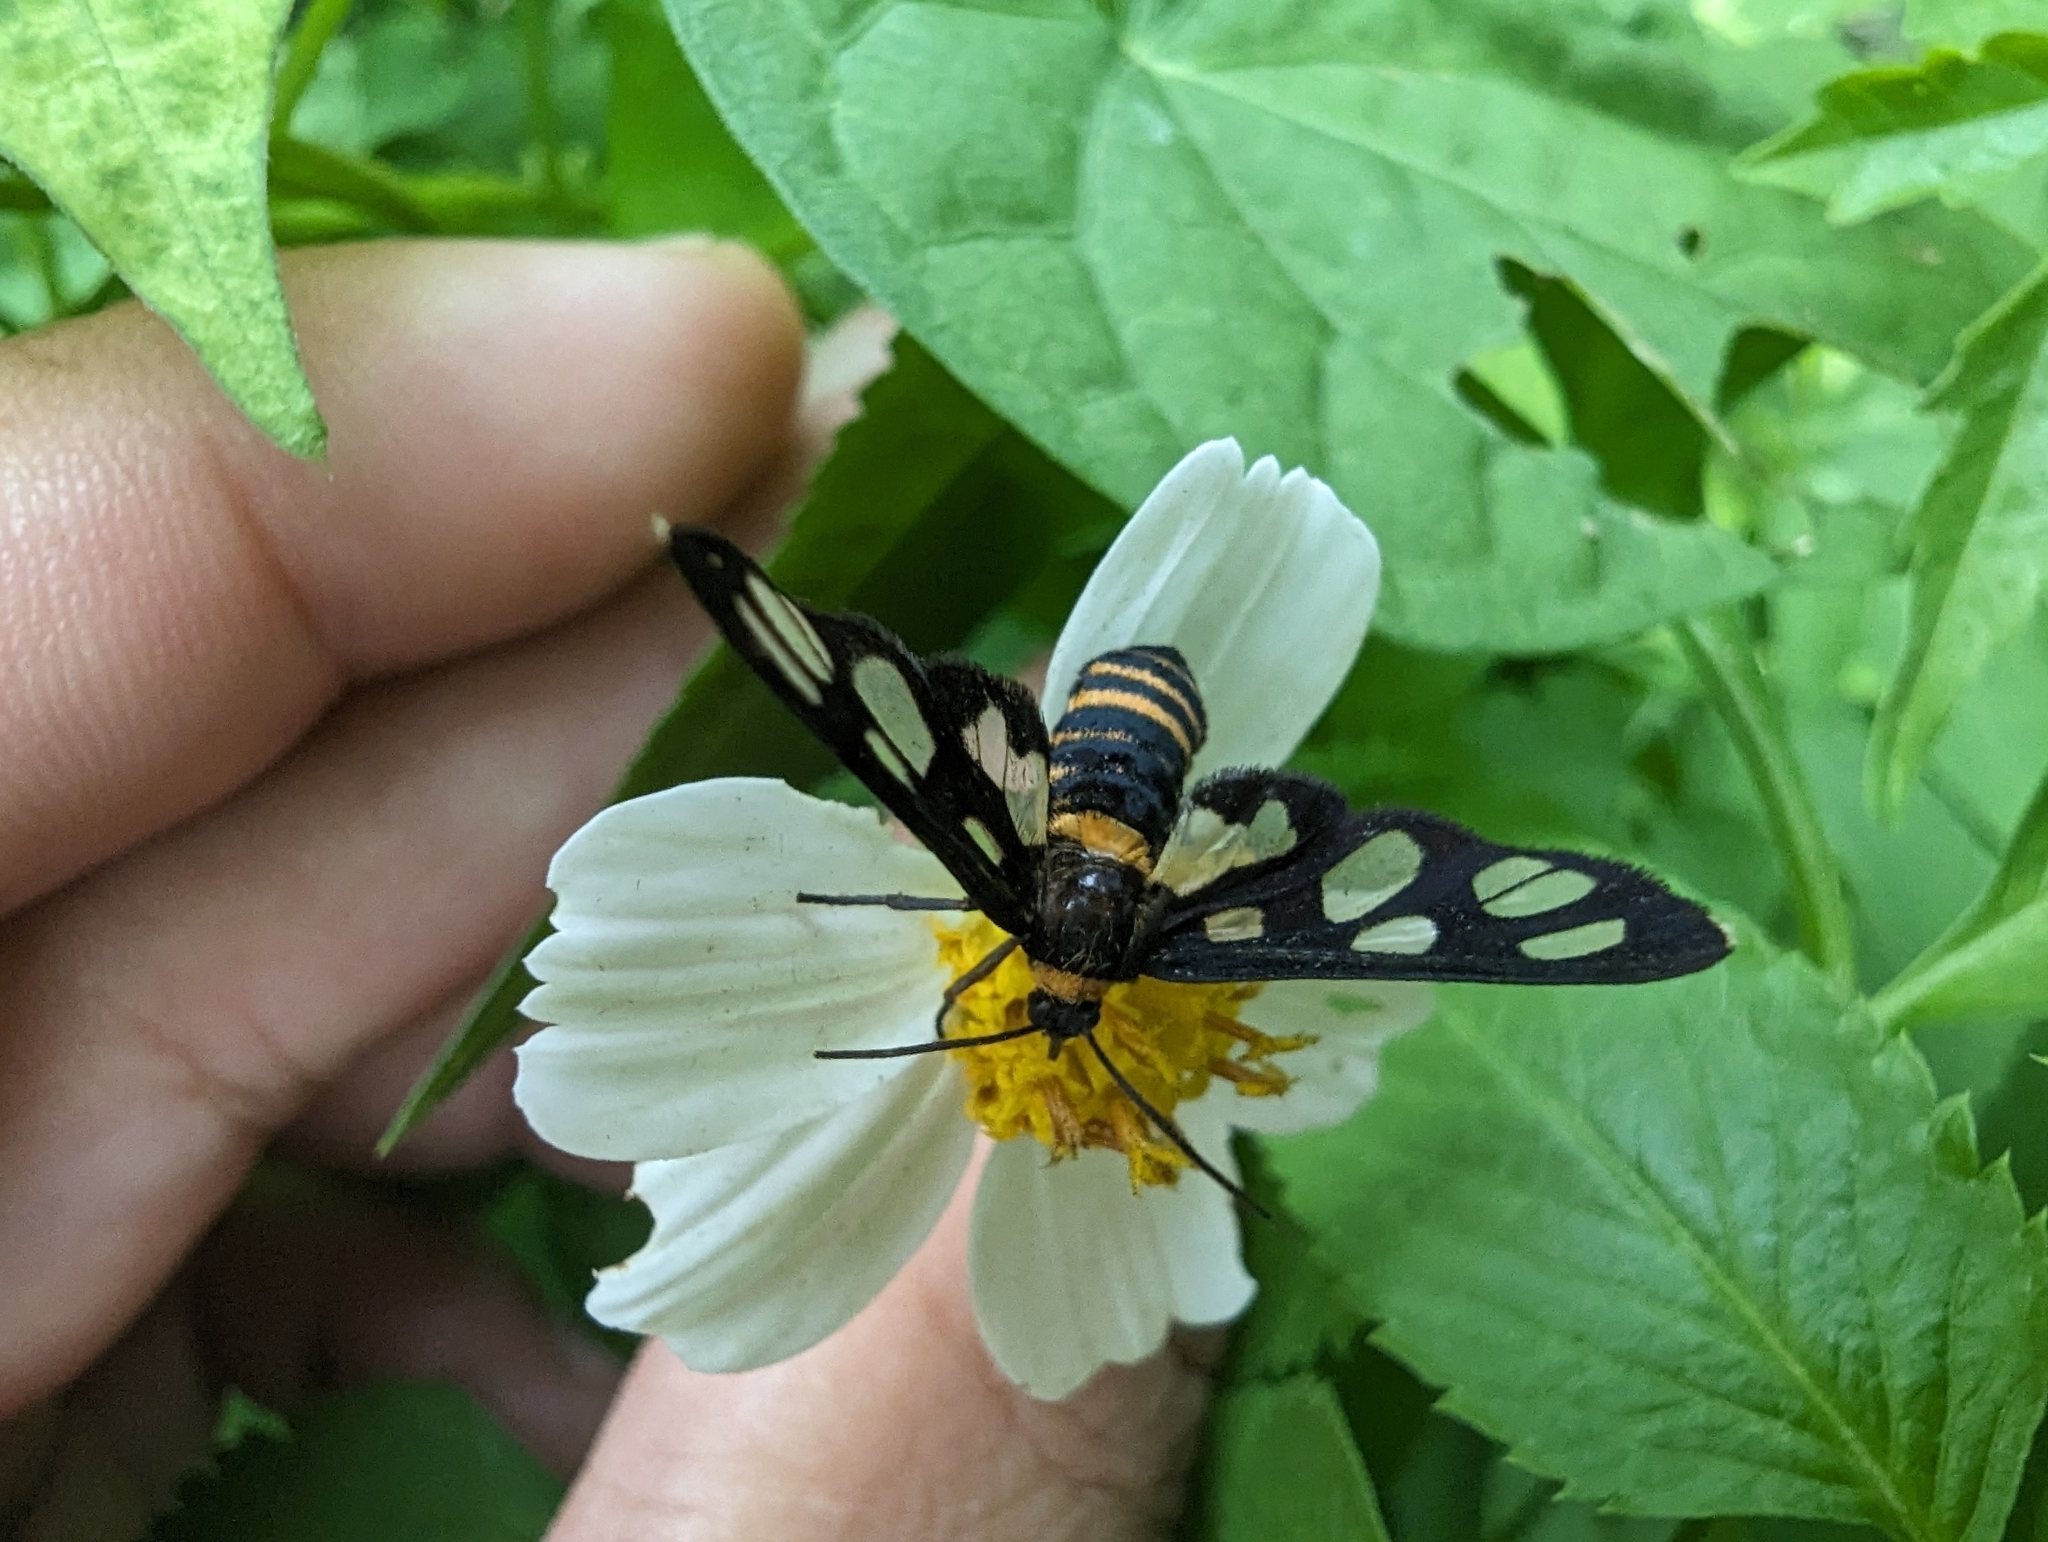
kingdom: Animalia
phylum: Arthropoda
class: Insecta
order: Lepidoptera
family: Erebidae
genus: Amata
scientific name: Amata fortunei
